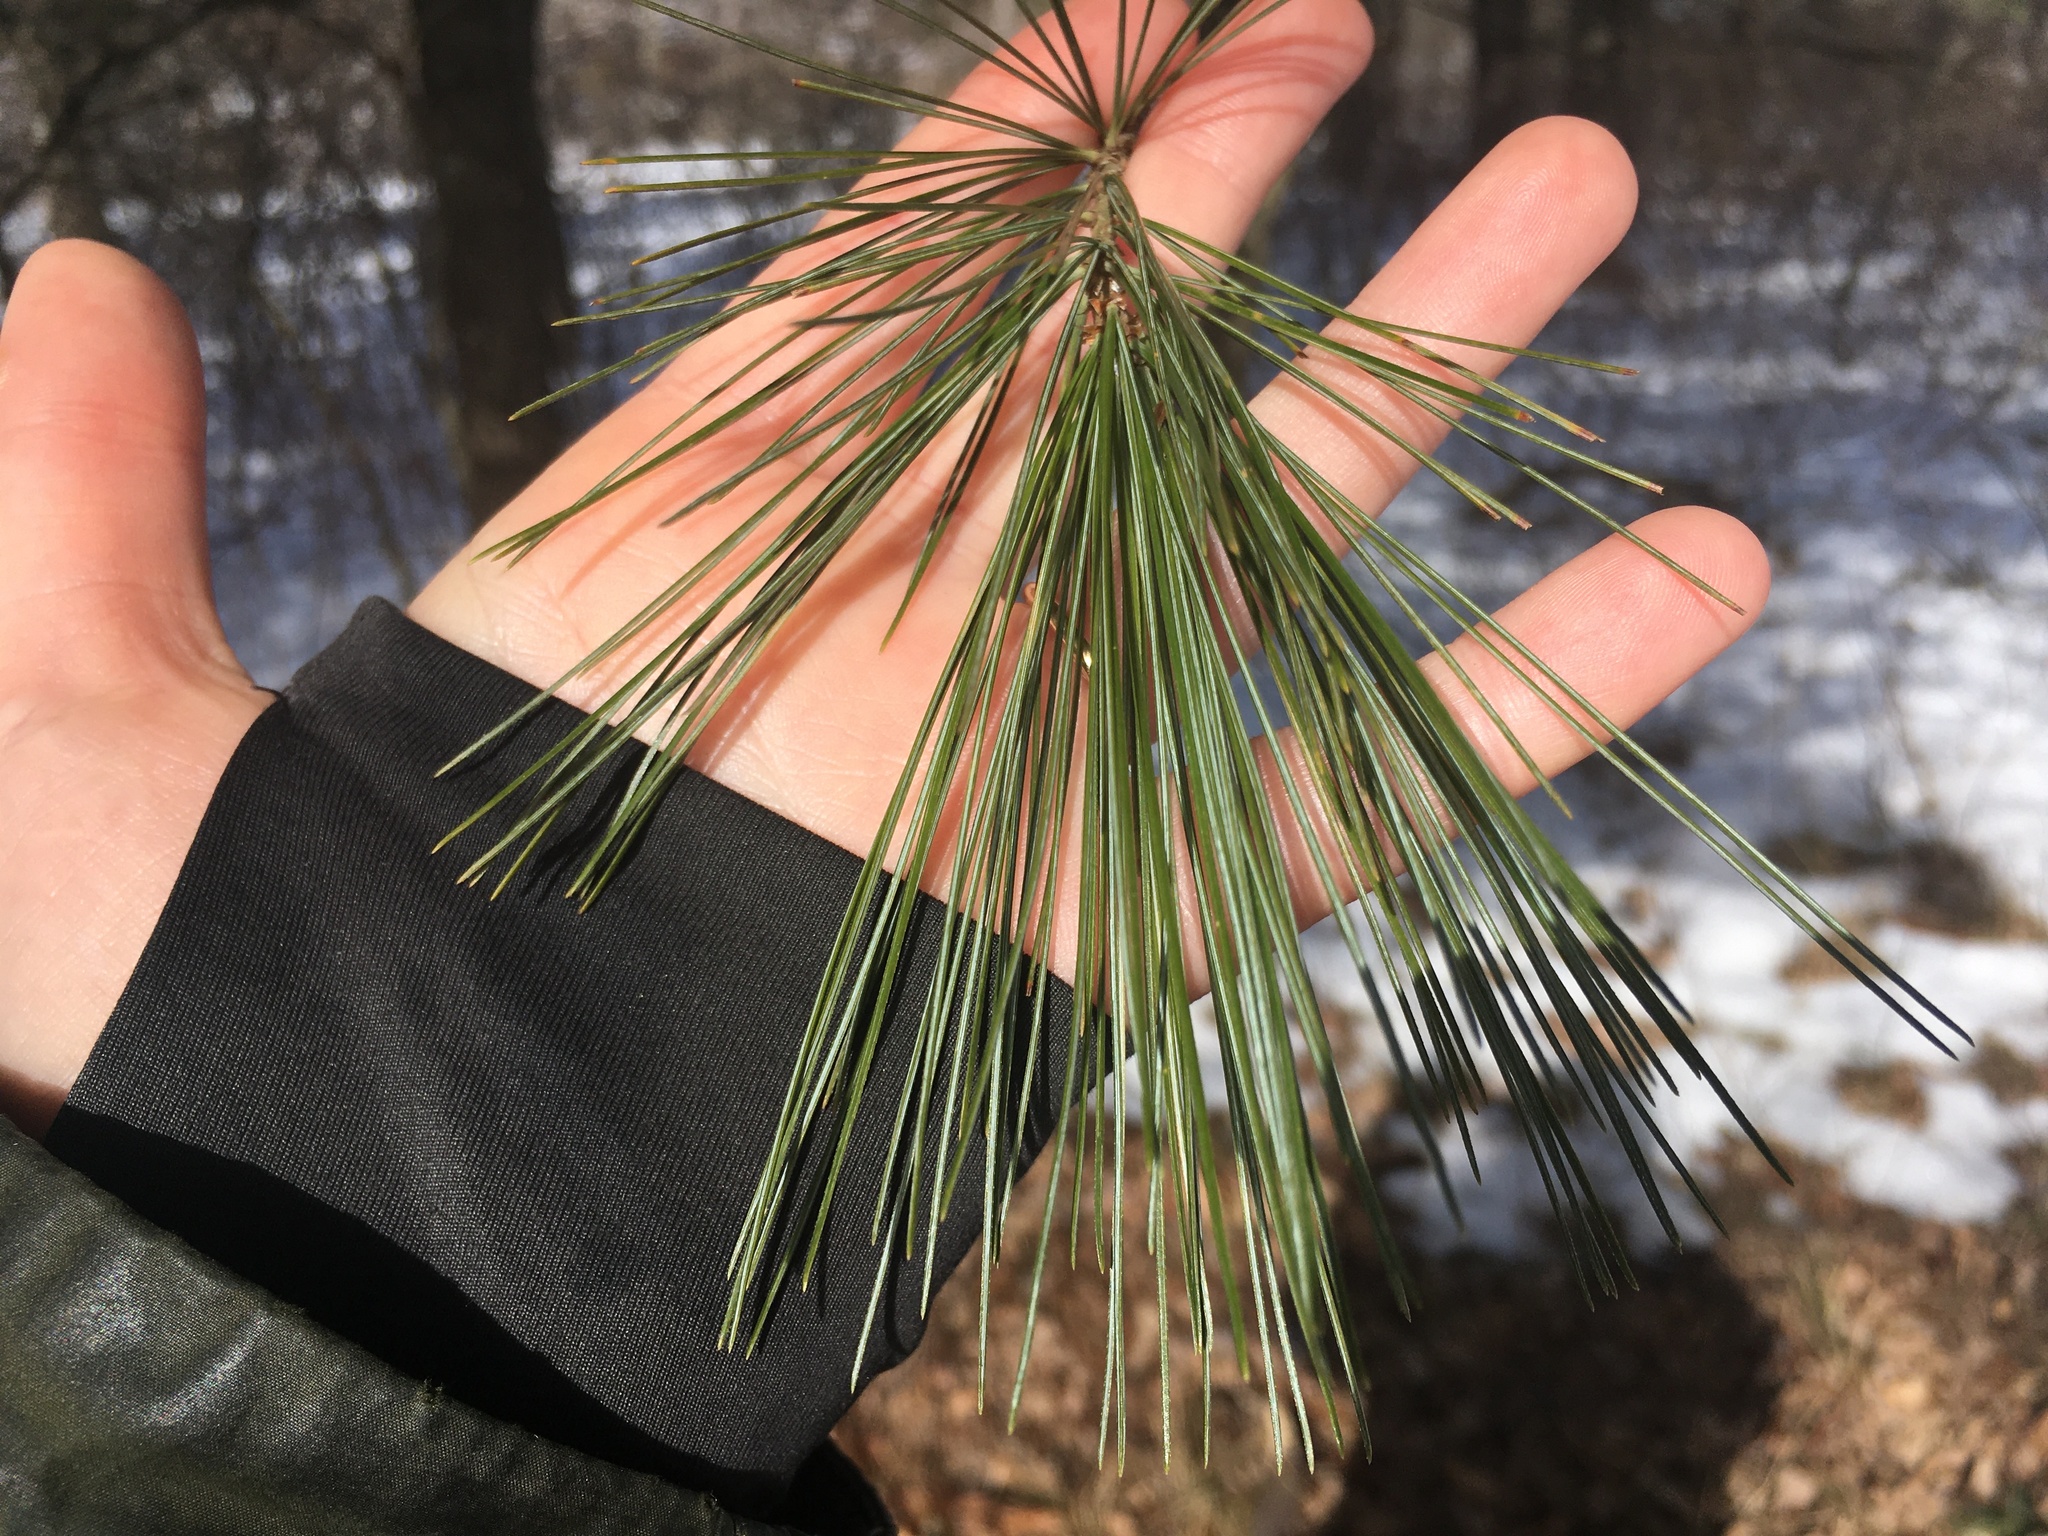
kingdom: Plantae
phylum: Tracheophyta
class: Pinopsida
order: Pinales
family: Pinaceae
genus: Pinus
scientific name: Pinus strobus
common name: Weymouth pine
